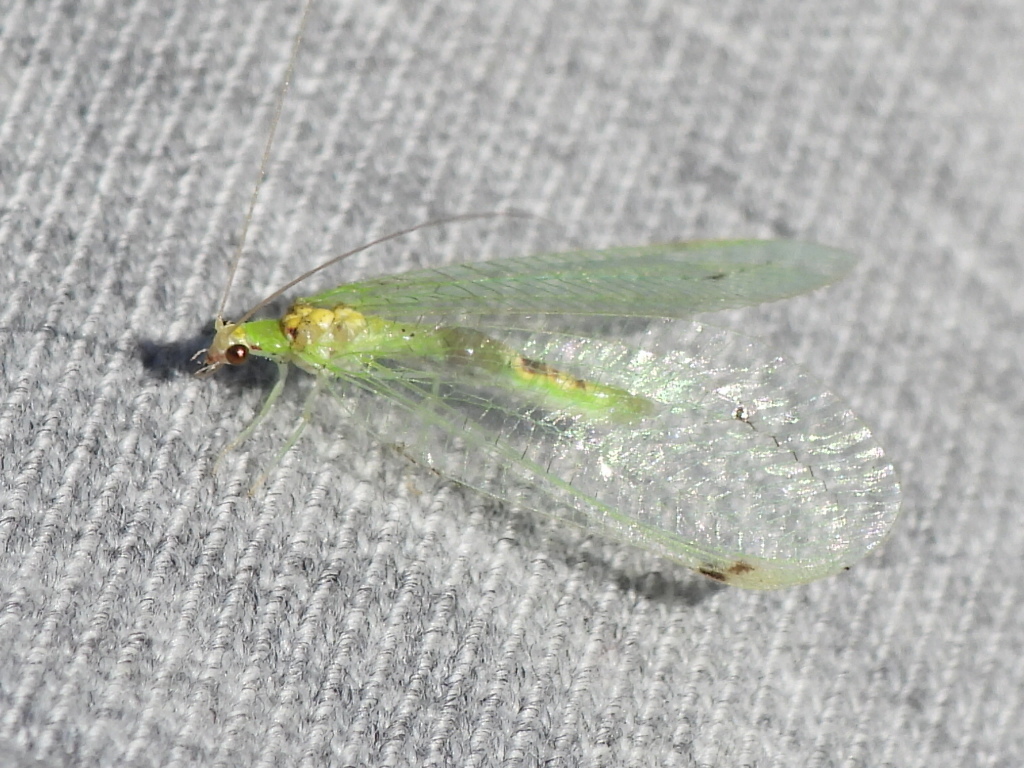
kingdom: Animalia
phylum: Arthropoda
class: Insecta
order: Neuroptera
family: Chrysopidae
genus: Leucochrysa
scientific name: Leucochrysa insularis
